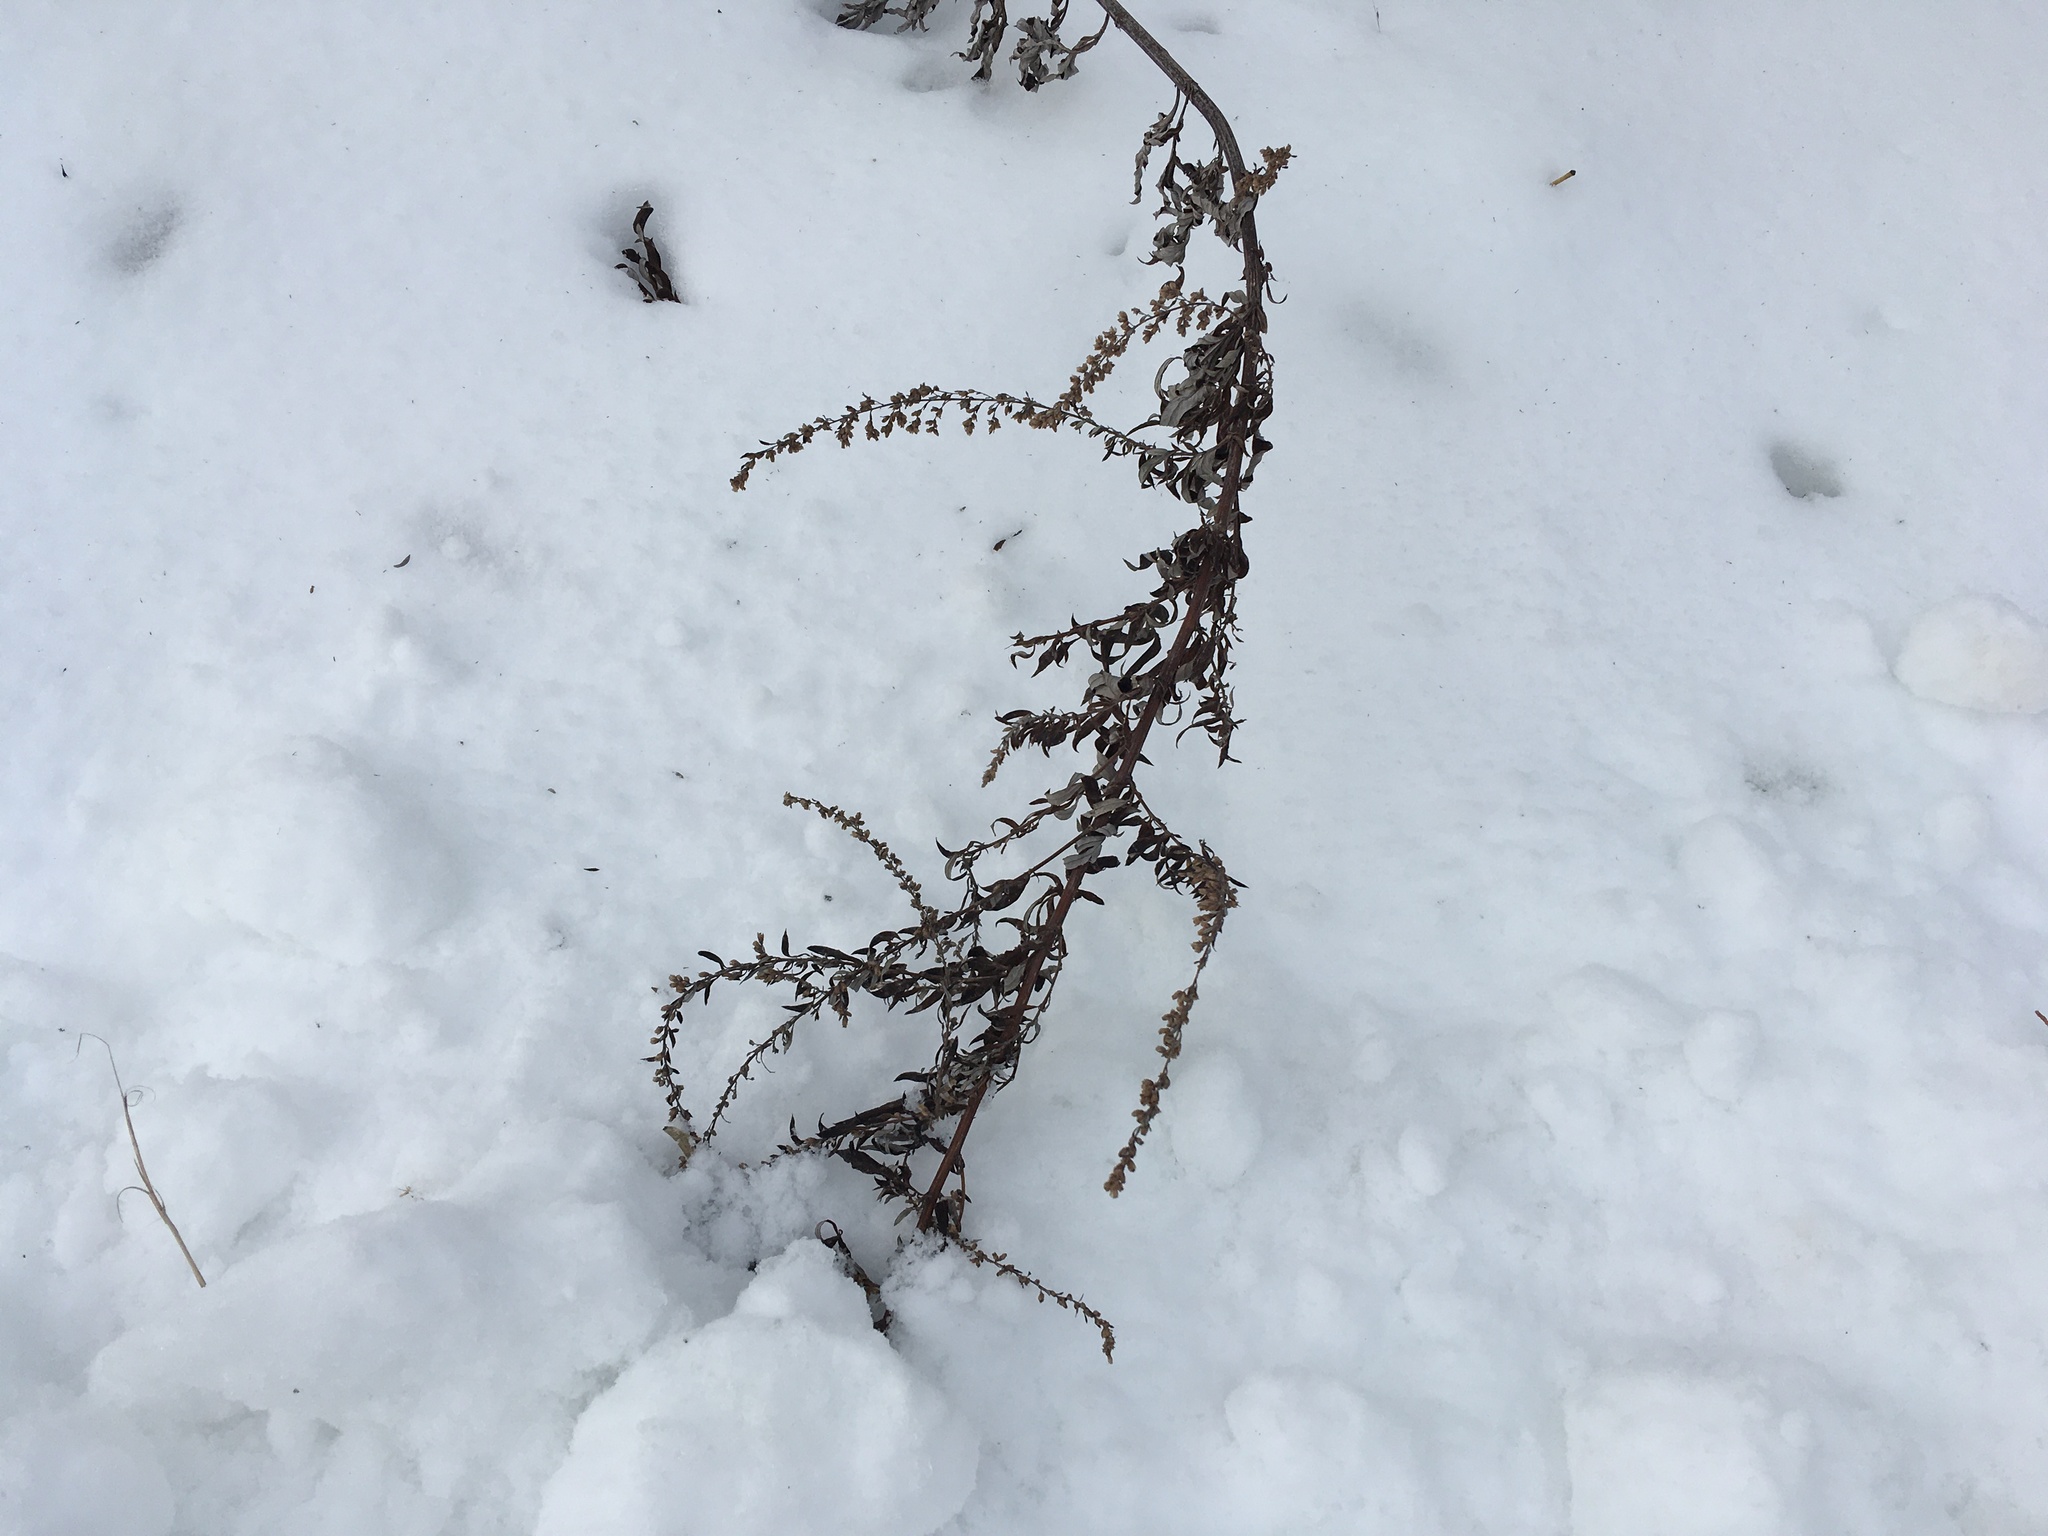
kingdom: Plantae
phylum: Tracheophyta
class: Magnoliopsida
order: Asterales
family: Asteraceae
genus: Artemisia
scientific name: Artemisia vulgaris
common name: Mugwort
